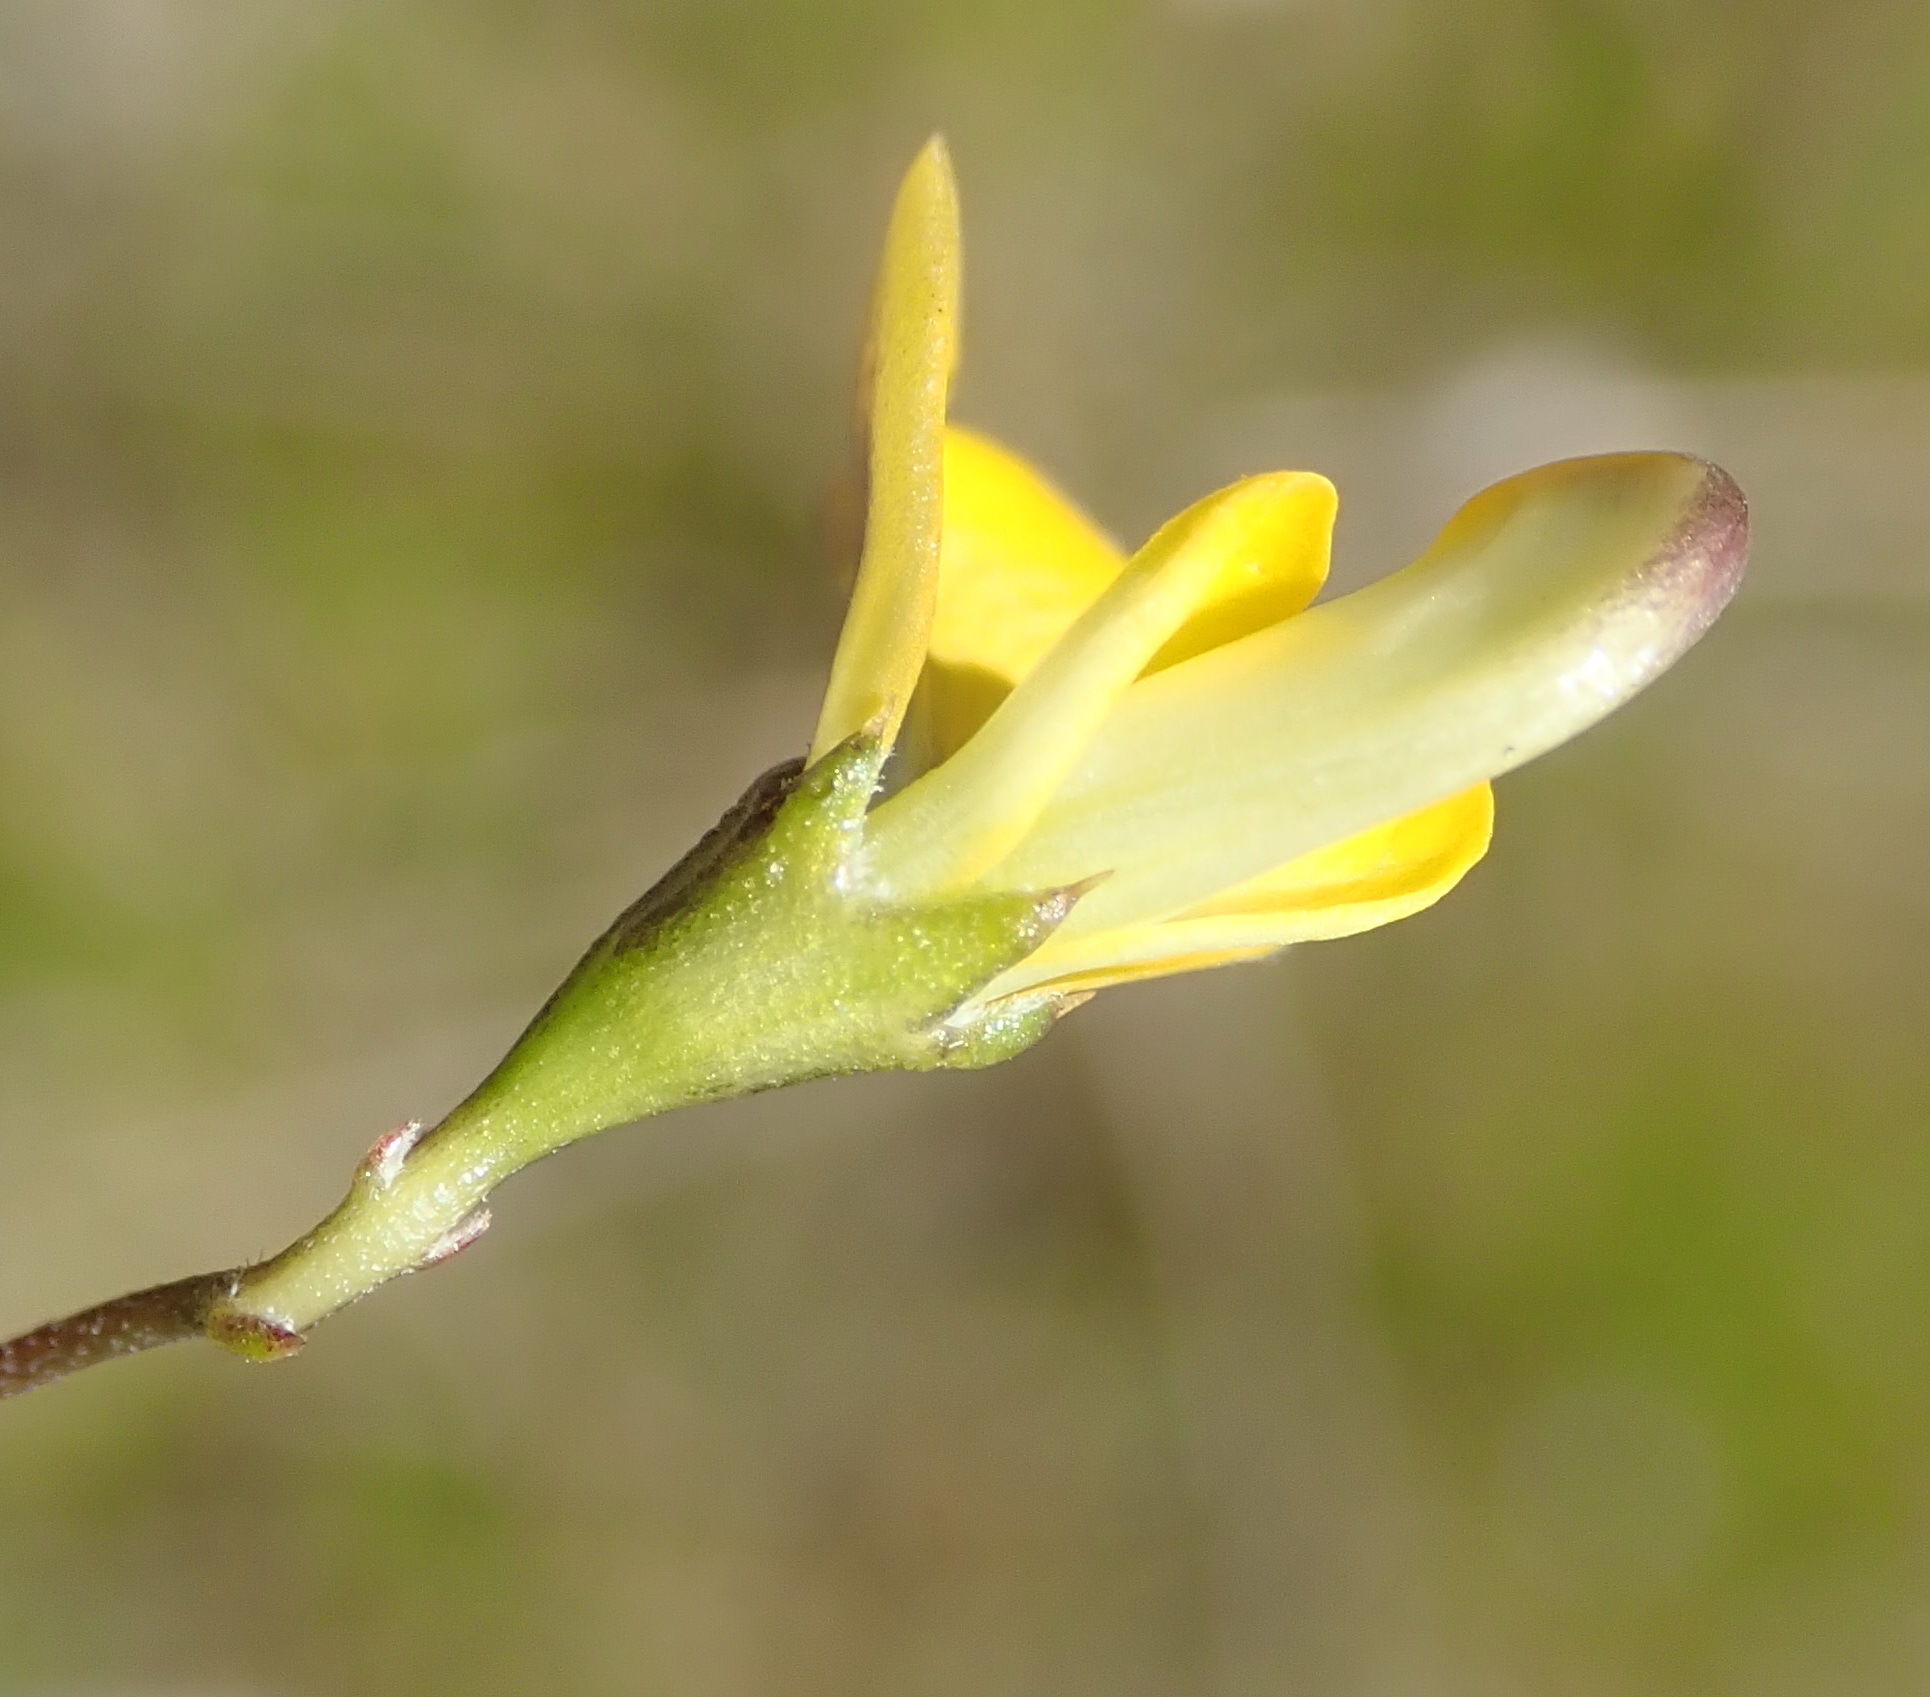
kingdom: Plantae
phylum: Tracheophyta
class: Magnoliopsida
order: Fabales
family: Fabaceae
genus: Aspalathus
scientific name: Aspalathus biflora
